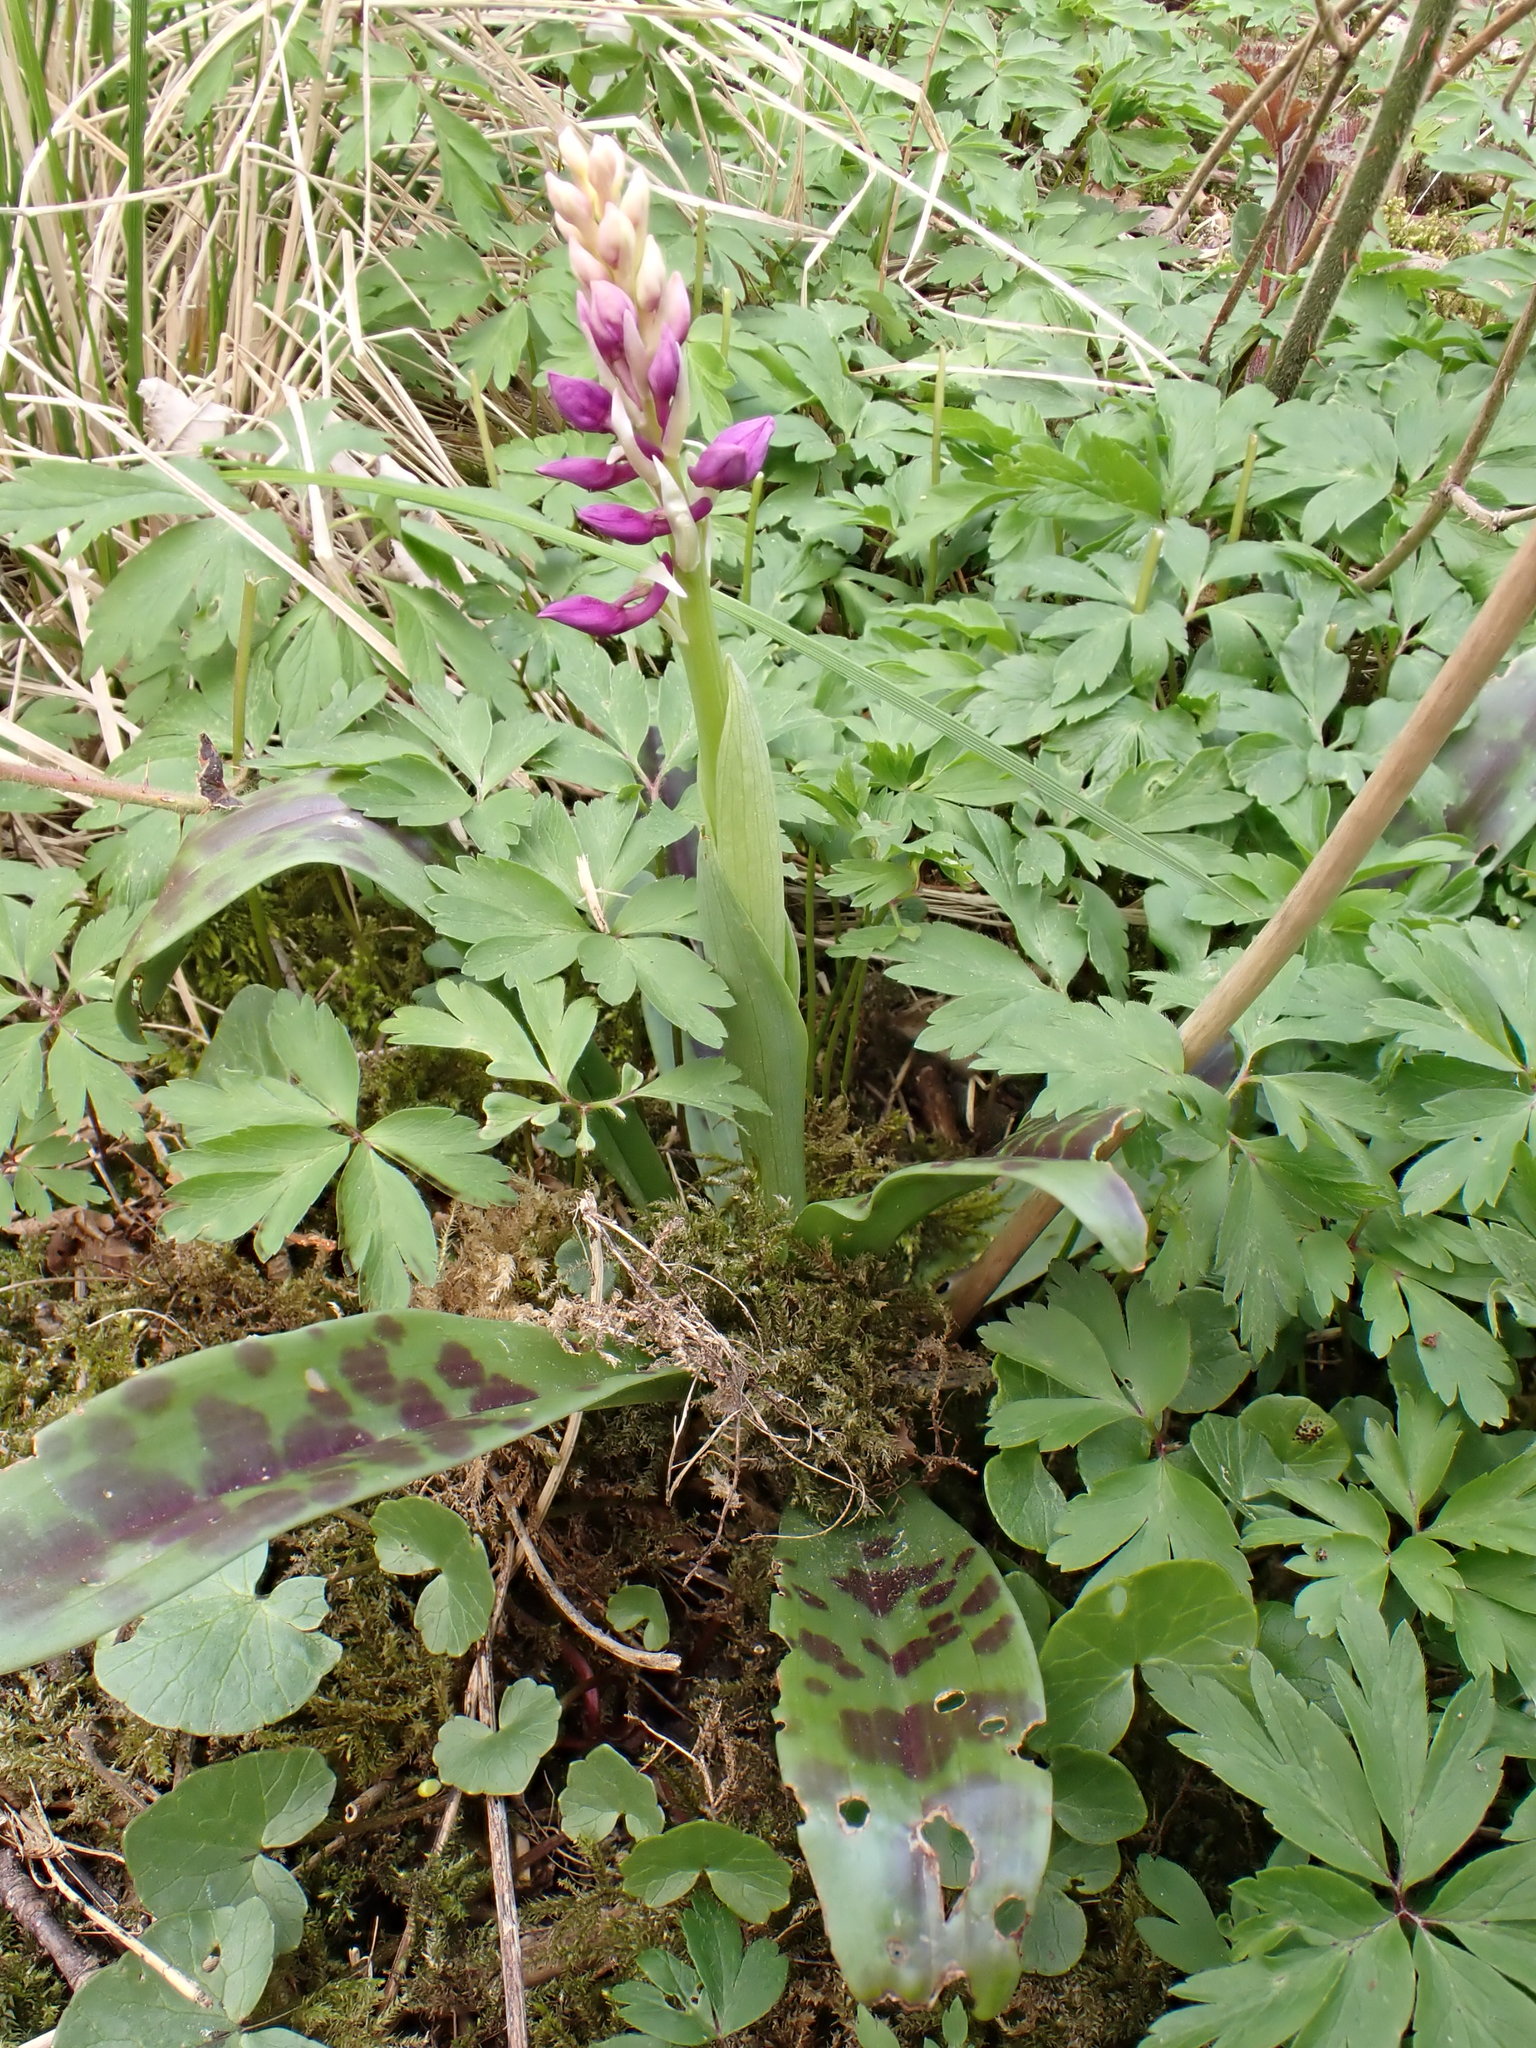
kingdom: Plantae
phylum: Tracheophyta
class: Liliopsida
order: Asparagales
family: Orchidaceae
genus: Orchis
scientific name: Orchis mascula
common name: Early-purple orchid
